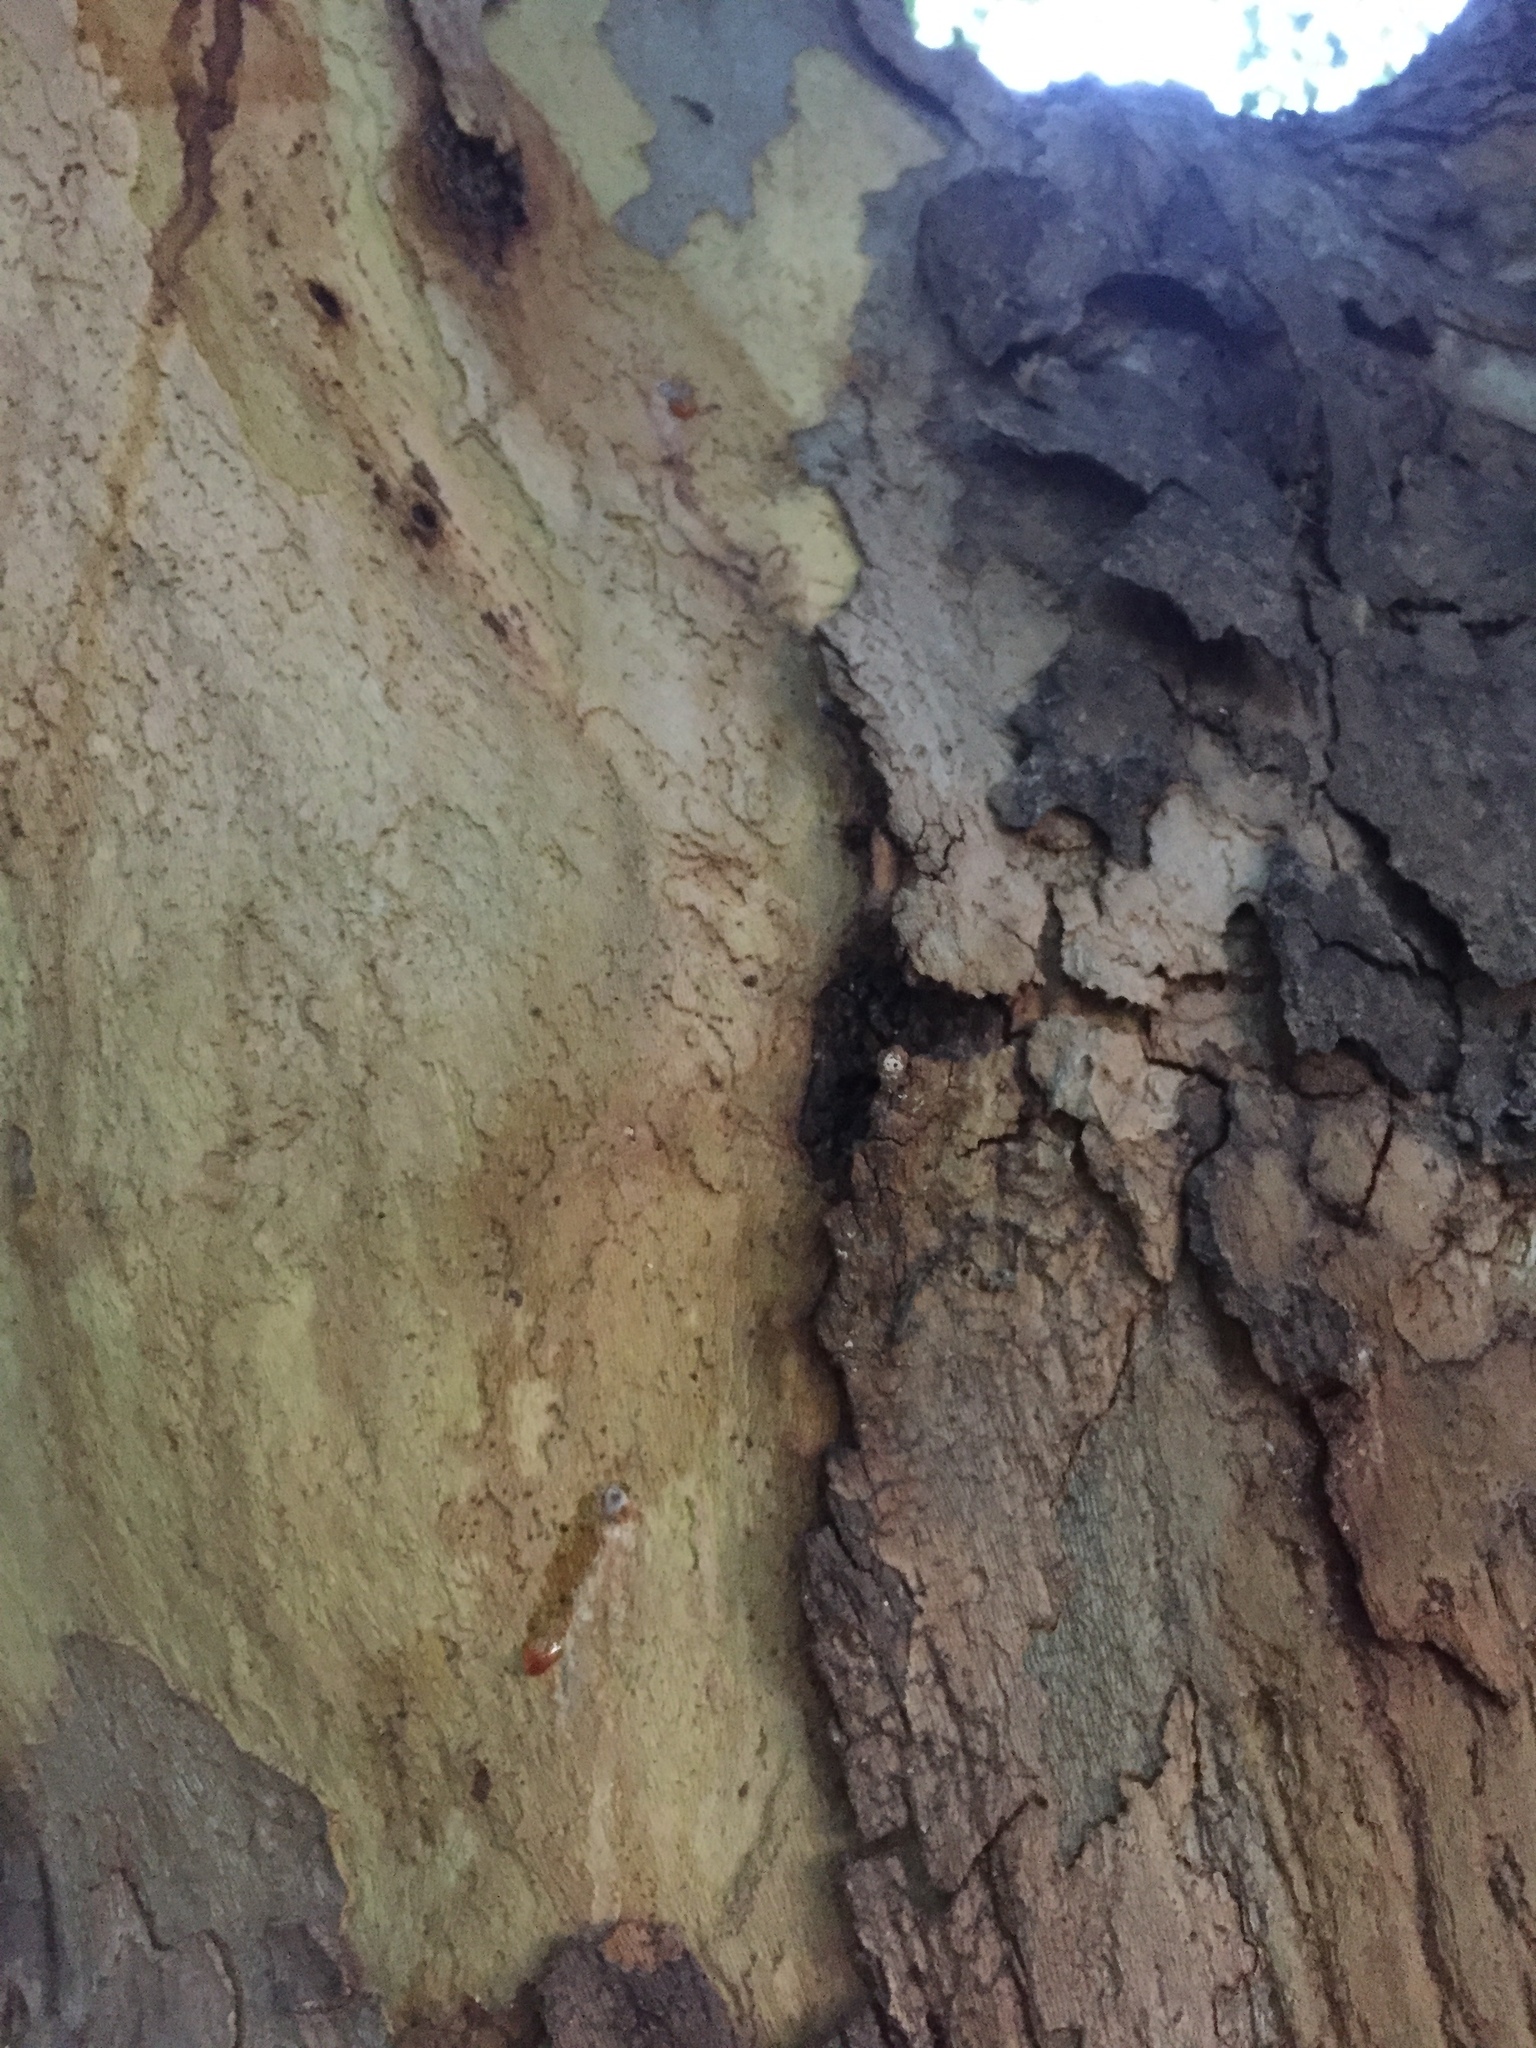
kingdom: Animalia
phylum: Arthropoda
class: Insecta
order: Coleoptera
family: Curculionidae
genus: Euwallacea
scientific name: Euwallacea fornicatus
